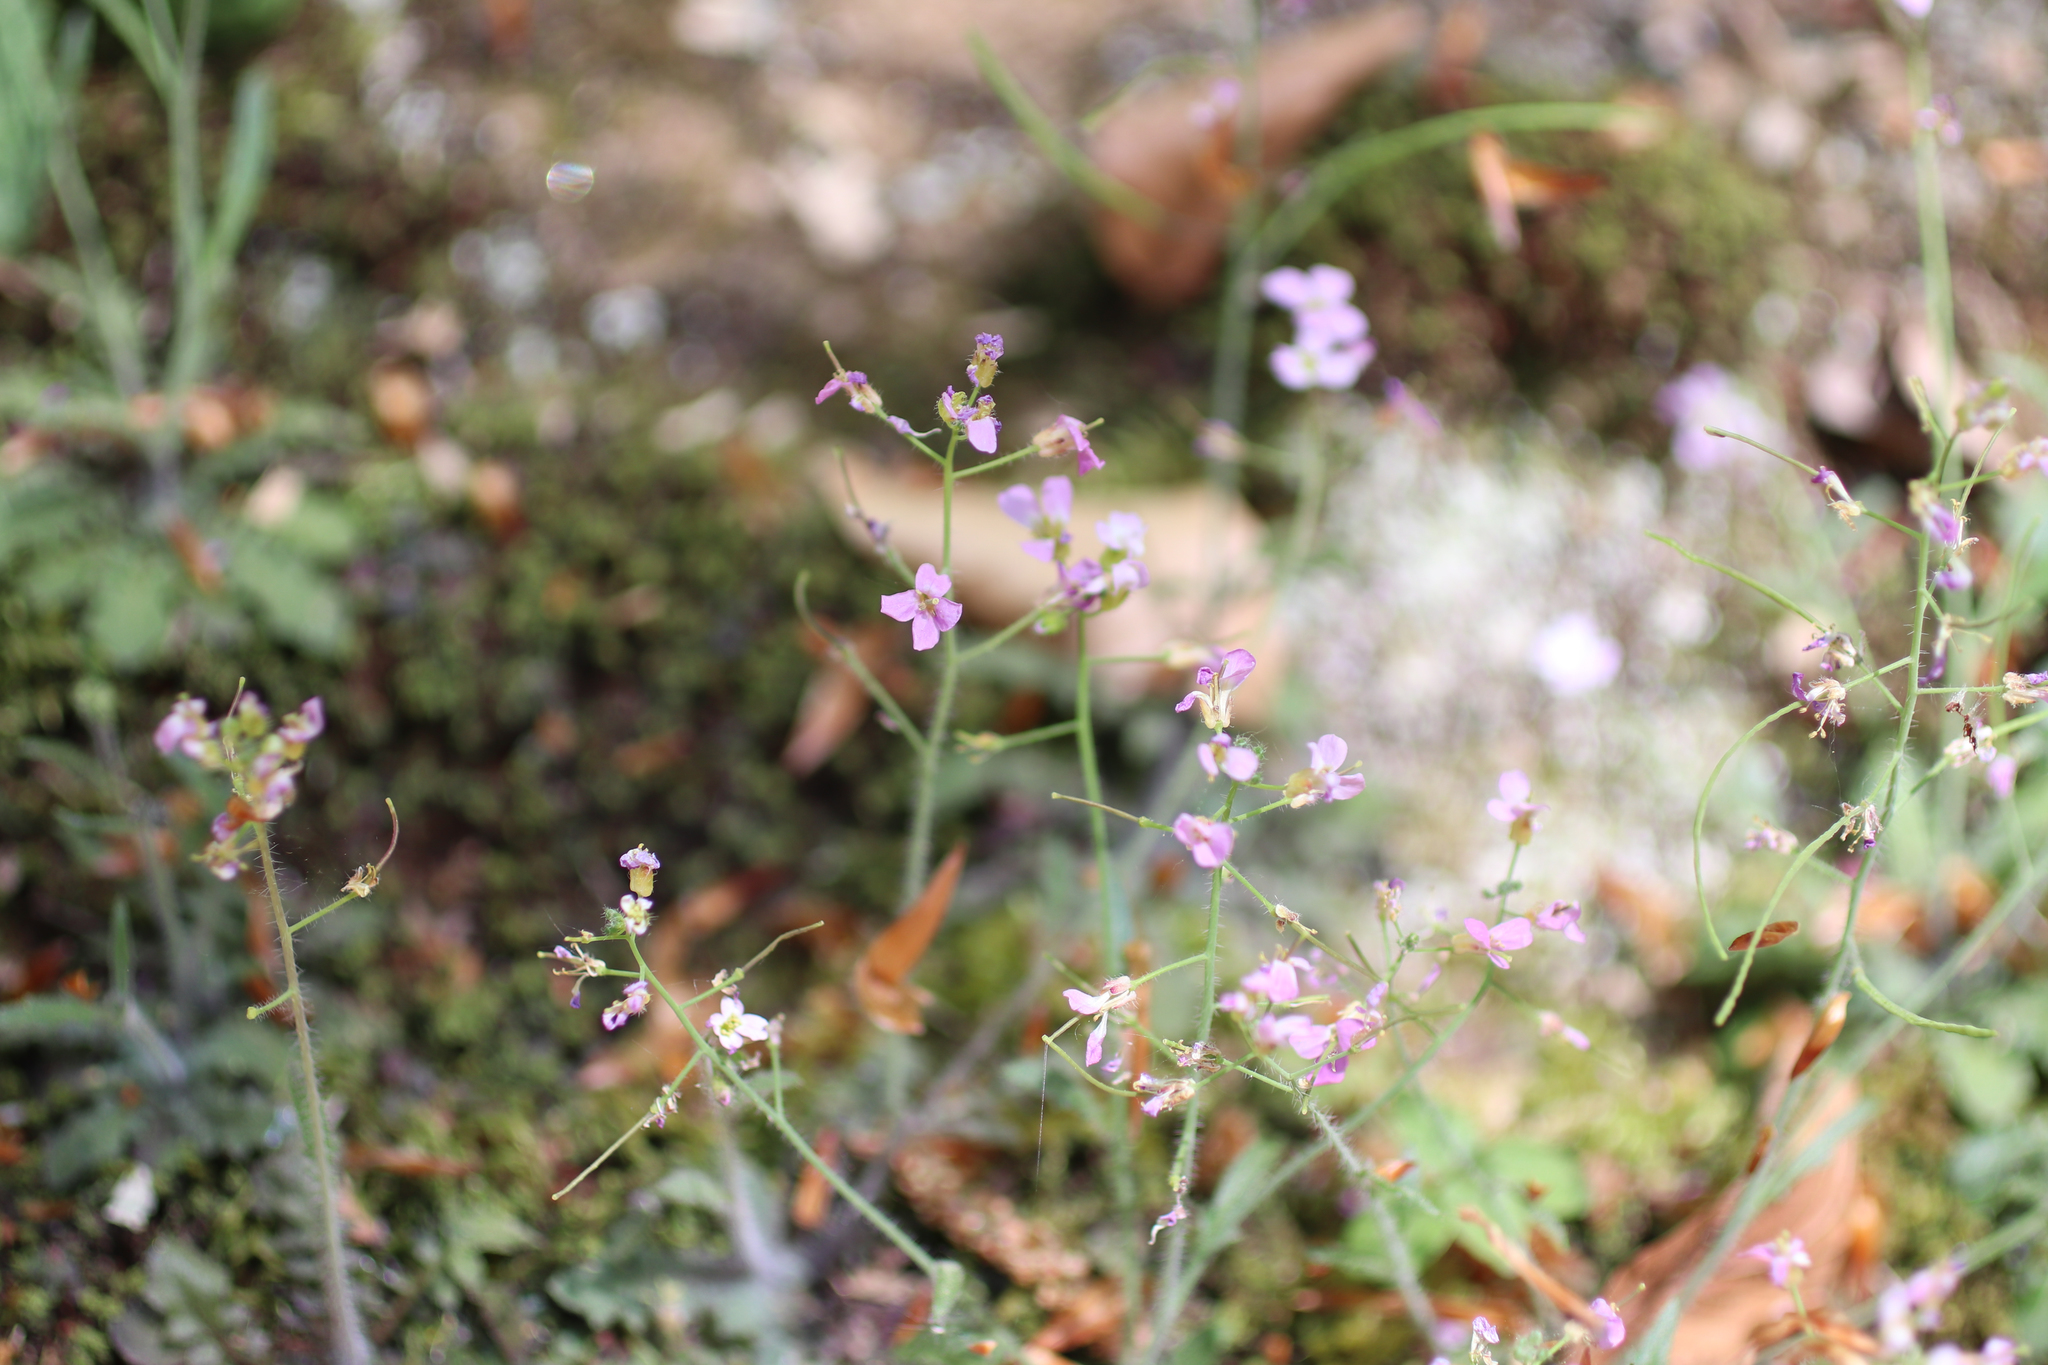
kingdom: Plantae
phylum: Tracheophyta
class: Magnoliopsida
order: Brassicales
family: Brassicaceae
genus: Arabidopsis
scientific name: Arabidopsis arenosa
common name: Sand rock-cress
